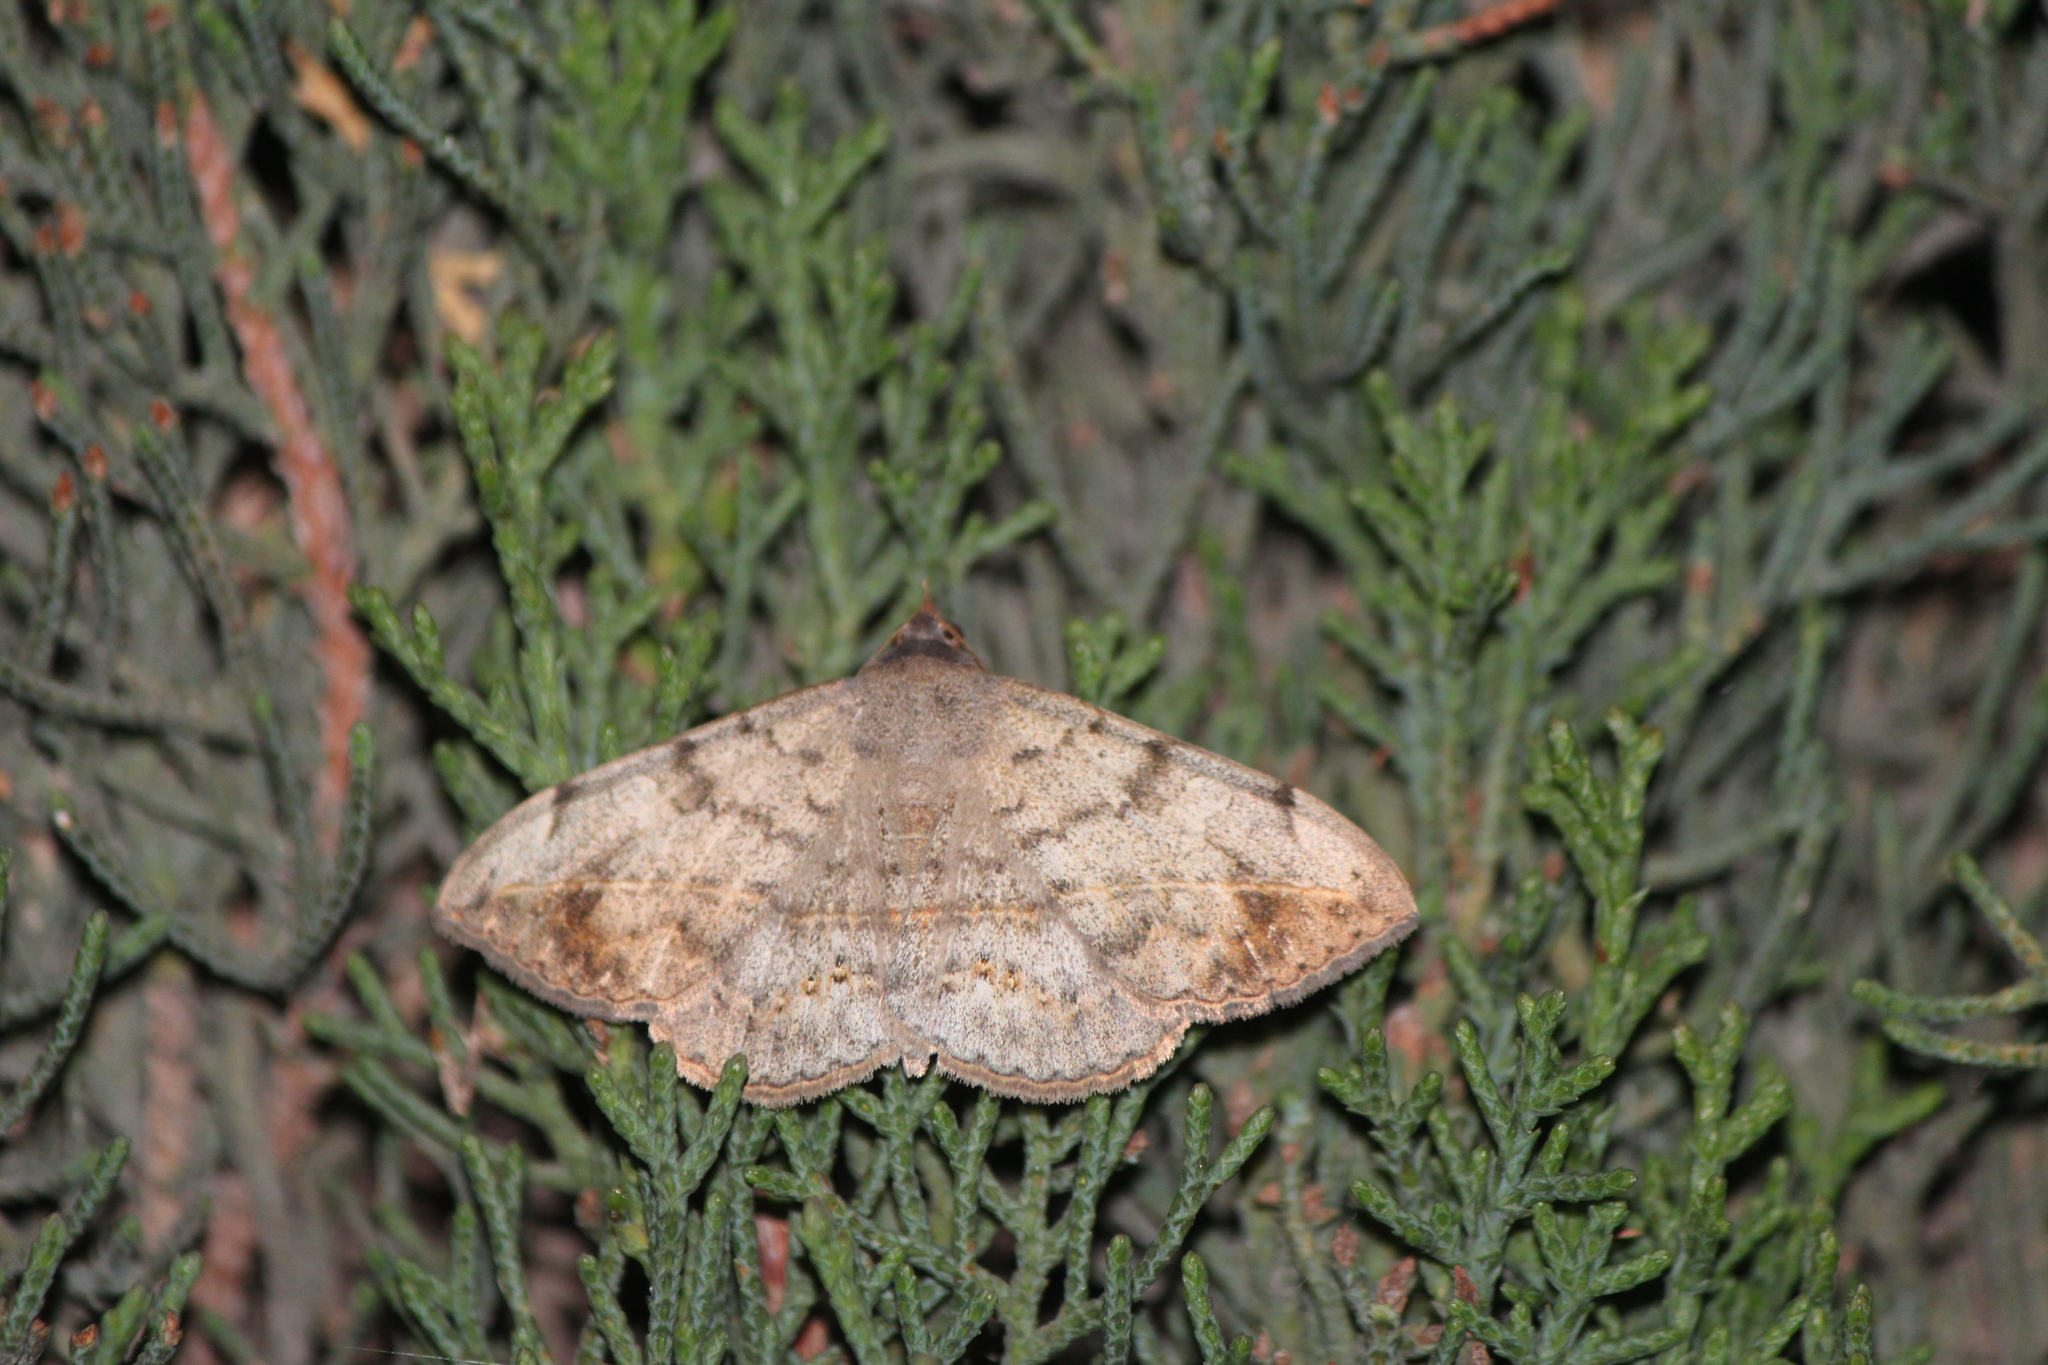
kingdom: Animalia
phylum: Arthropoda
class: Insecta
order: Lepidoptera
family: Erebidae
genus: Anticarsia
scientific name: Anticarsia gemmatalis
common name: Cutworm moth
